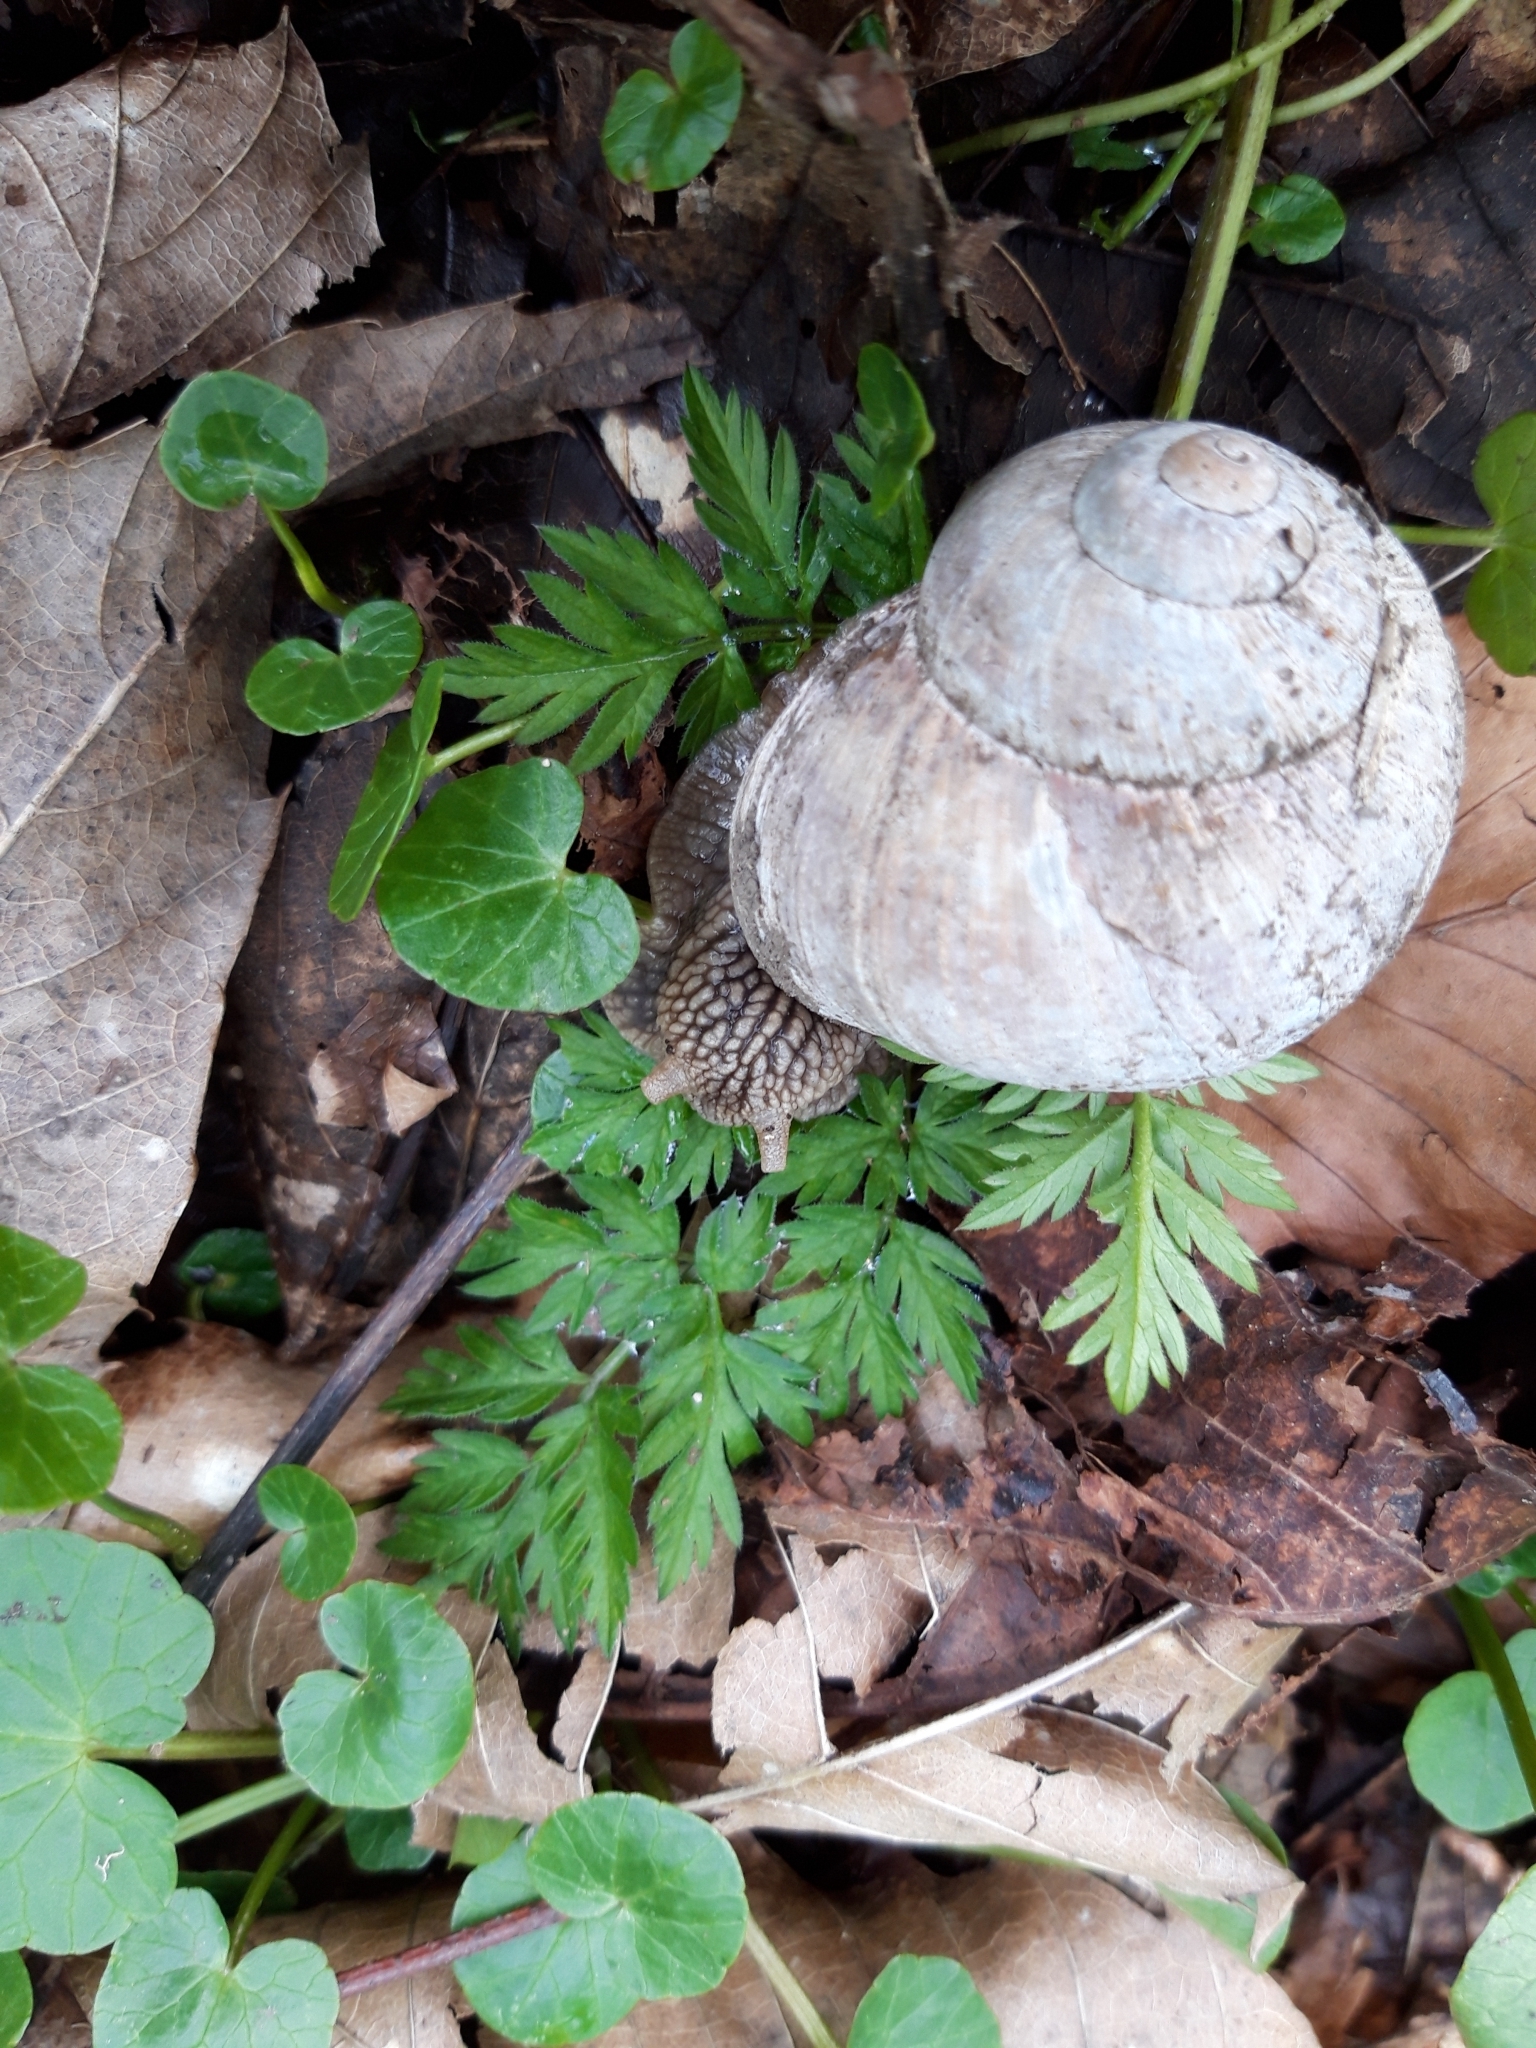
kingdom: Animalia
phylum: Mollusca
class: Gastropoda
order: Stylommatophora
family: Helicidae
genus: Helix
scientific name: Helix pomatia
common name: Roman snail
